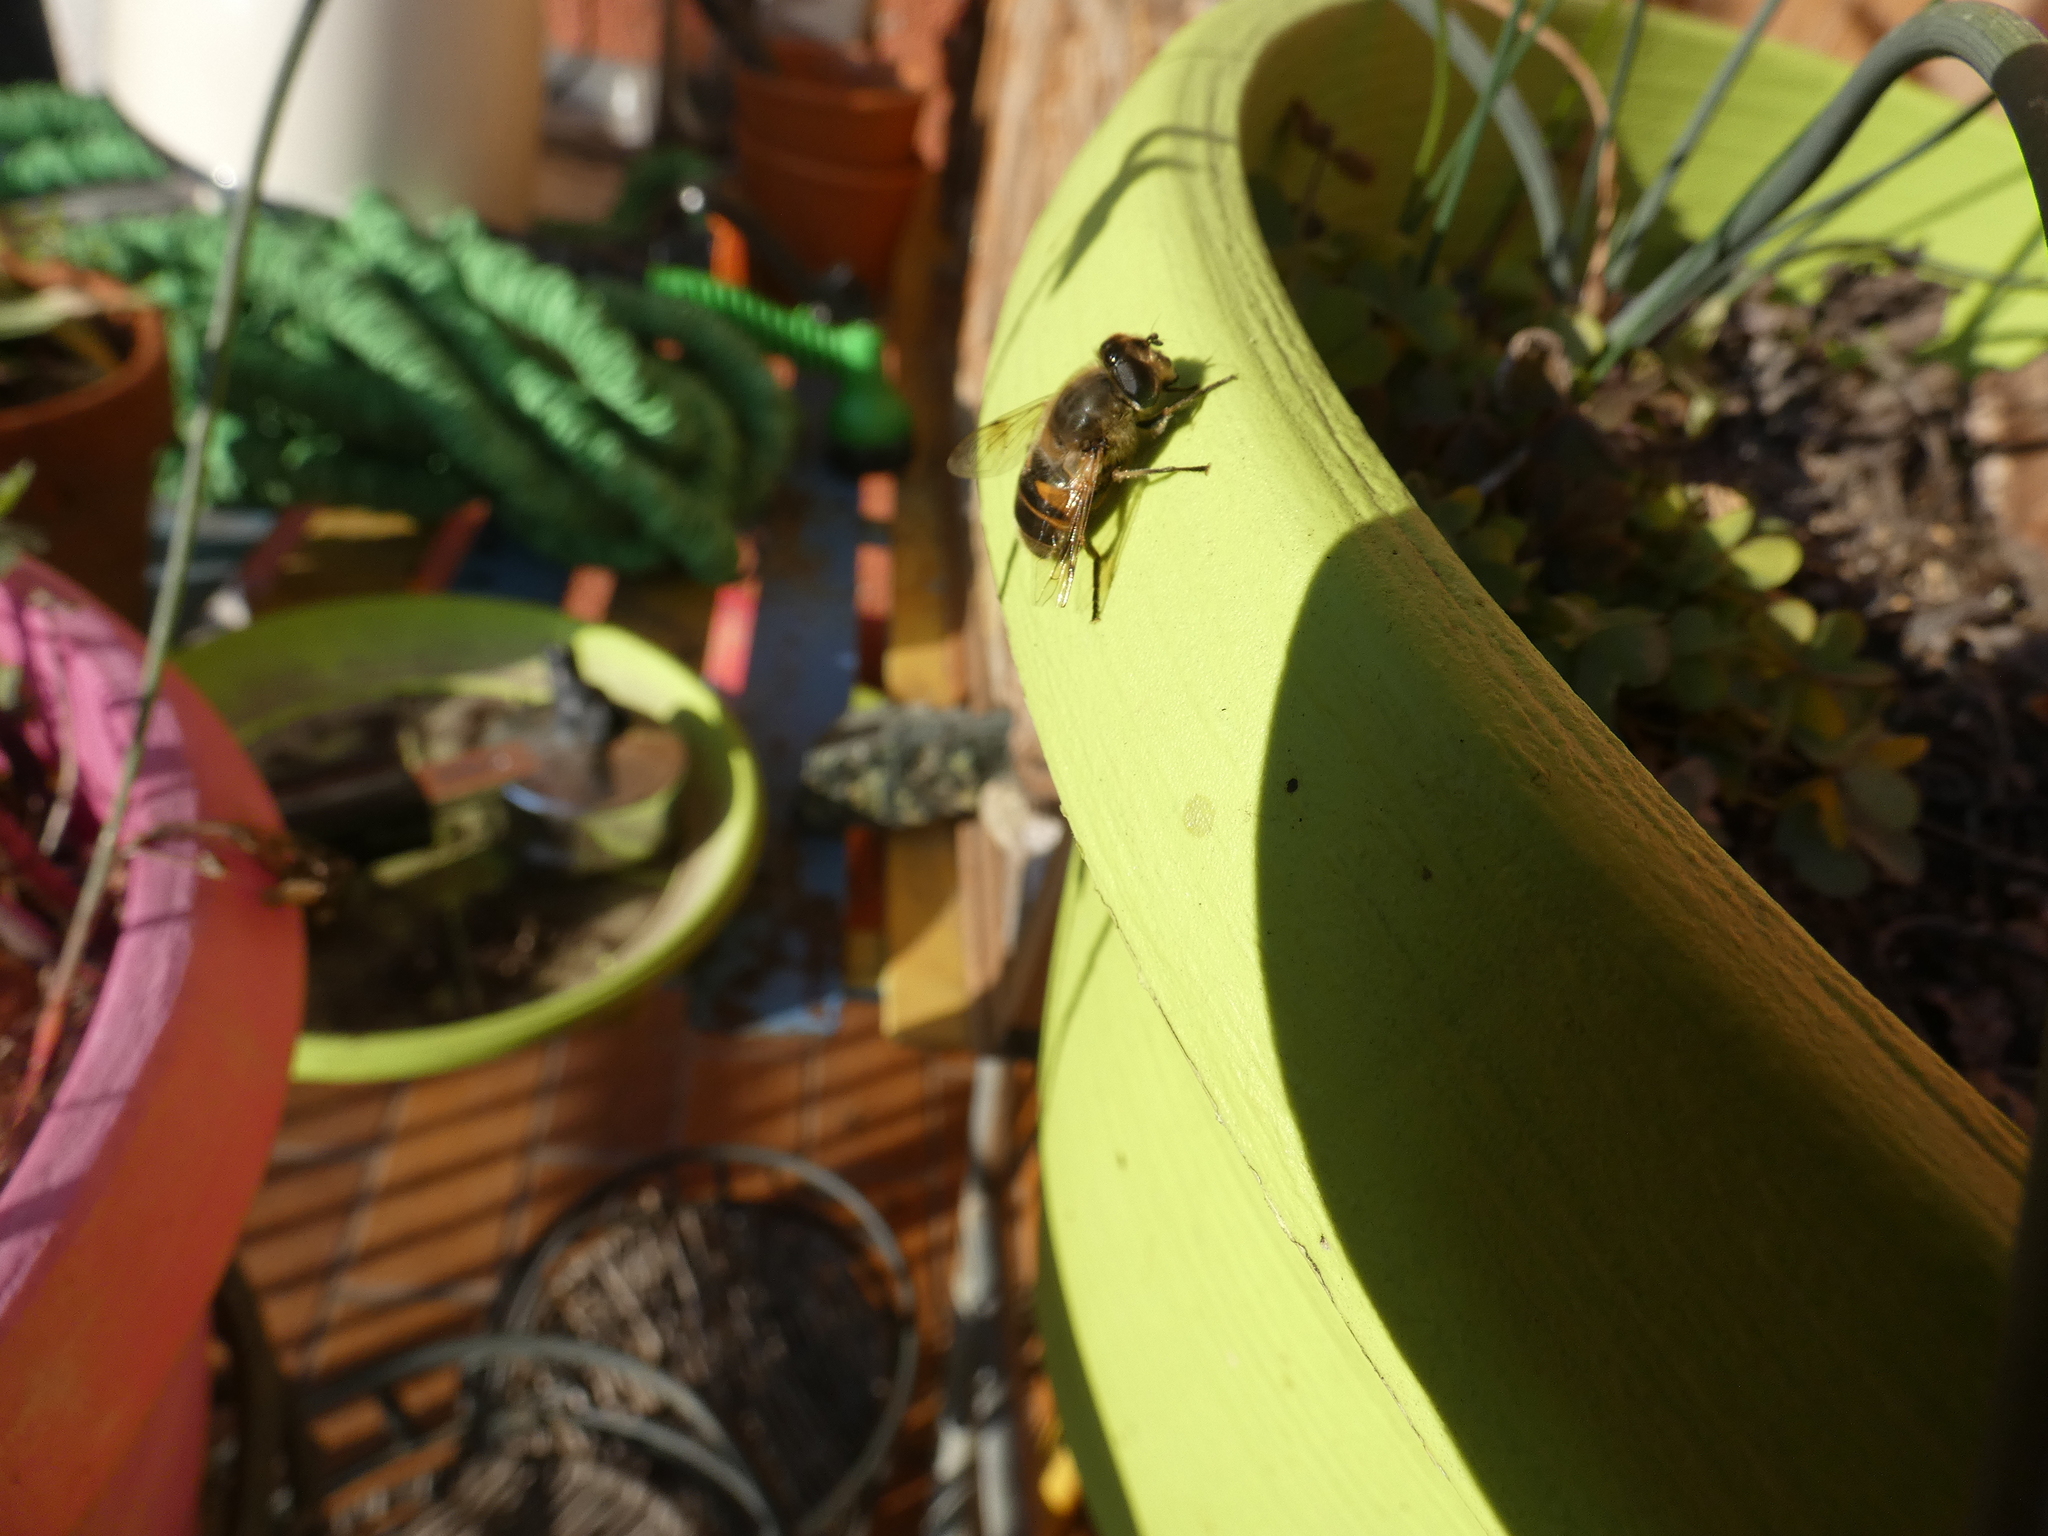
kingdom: Animalia
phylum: Arthropoda
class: Insecta
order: Diptera
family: Syrphidae
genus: Eristalis
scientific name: Eristalis tenax
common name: Drone fly
